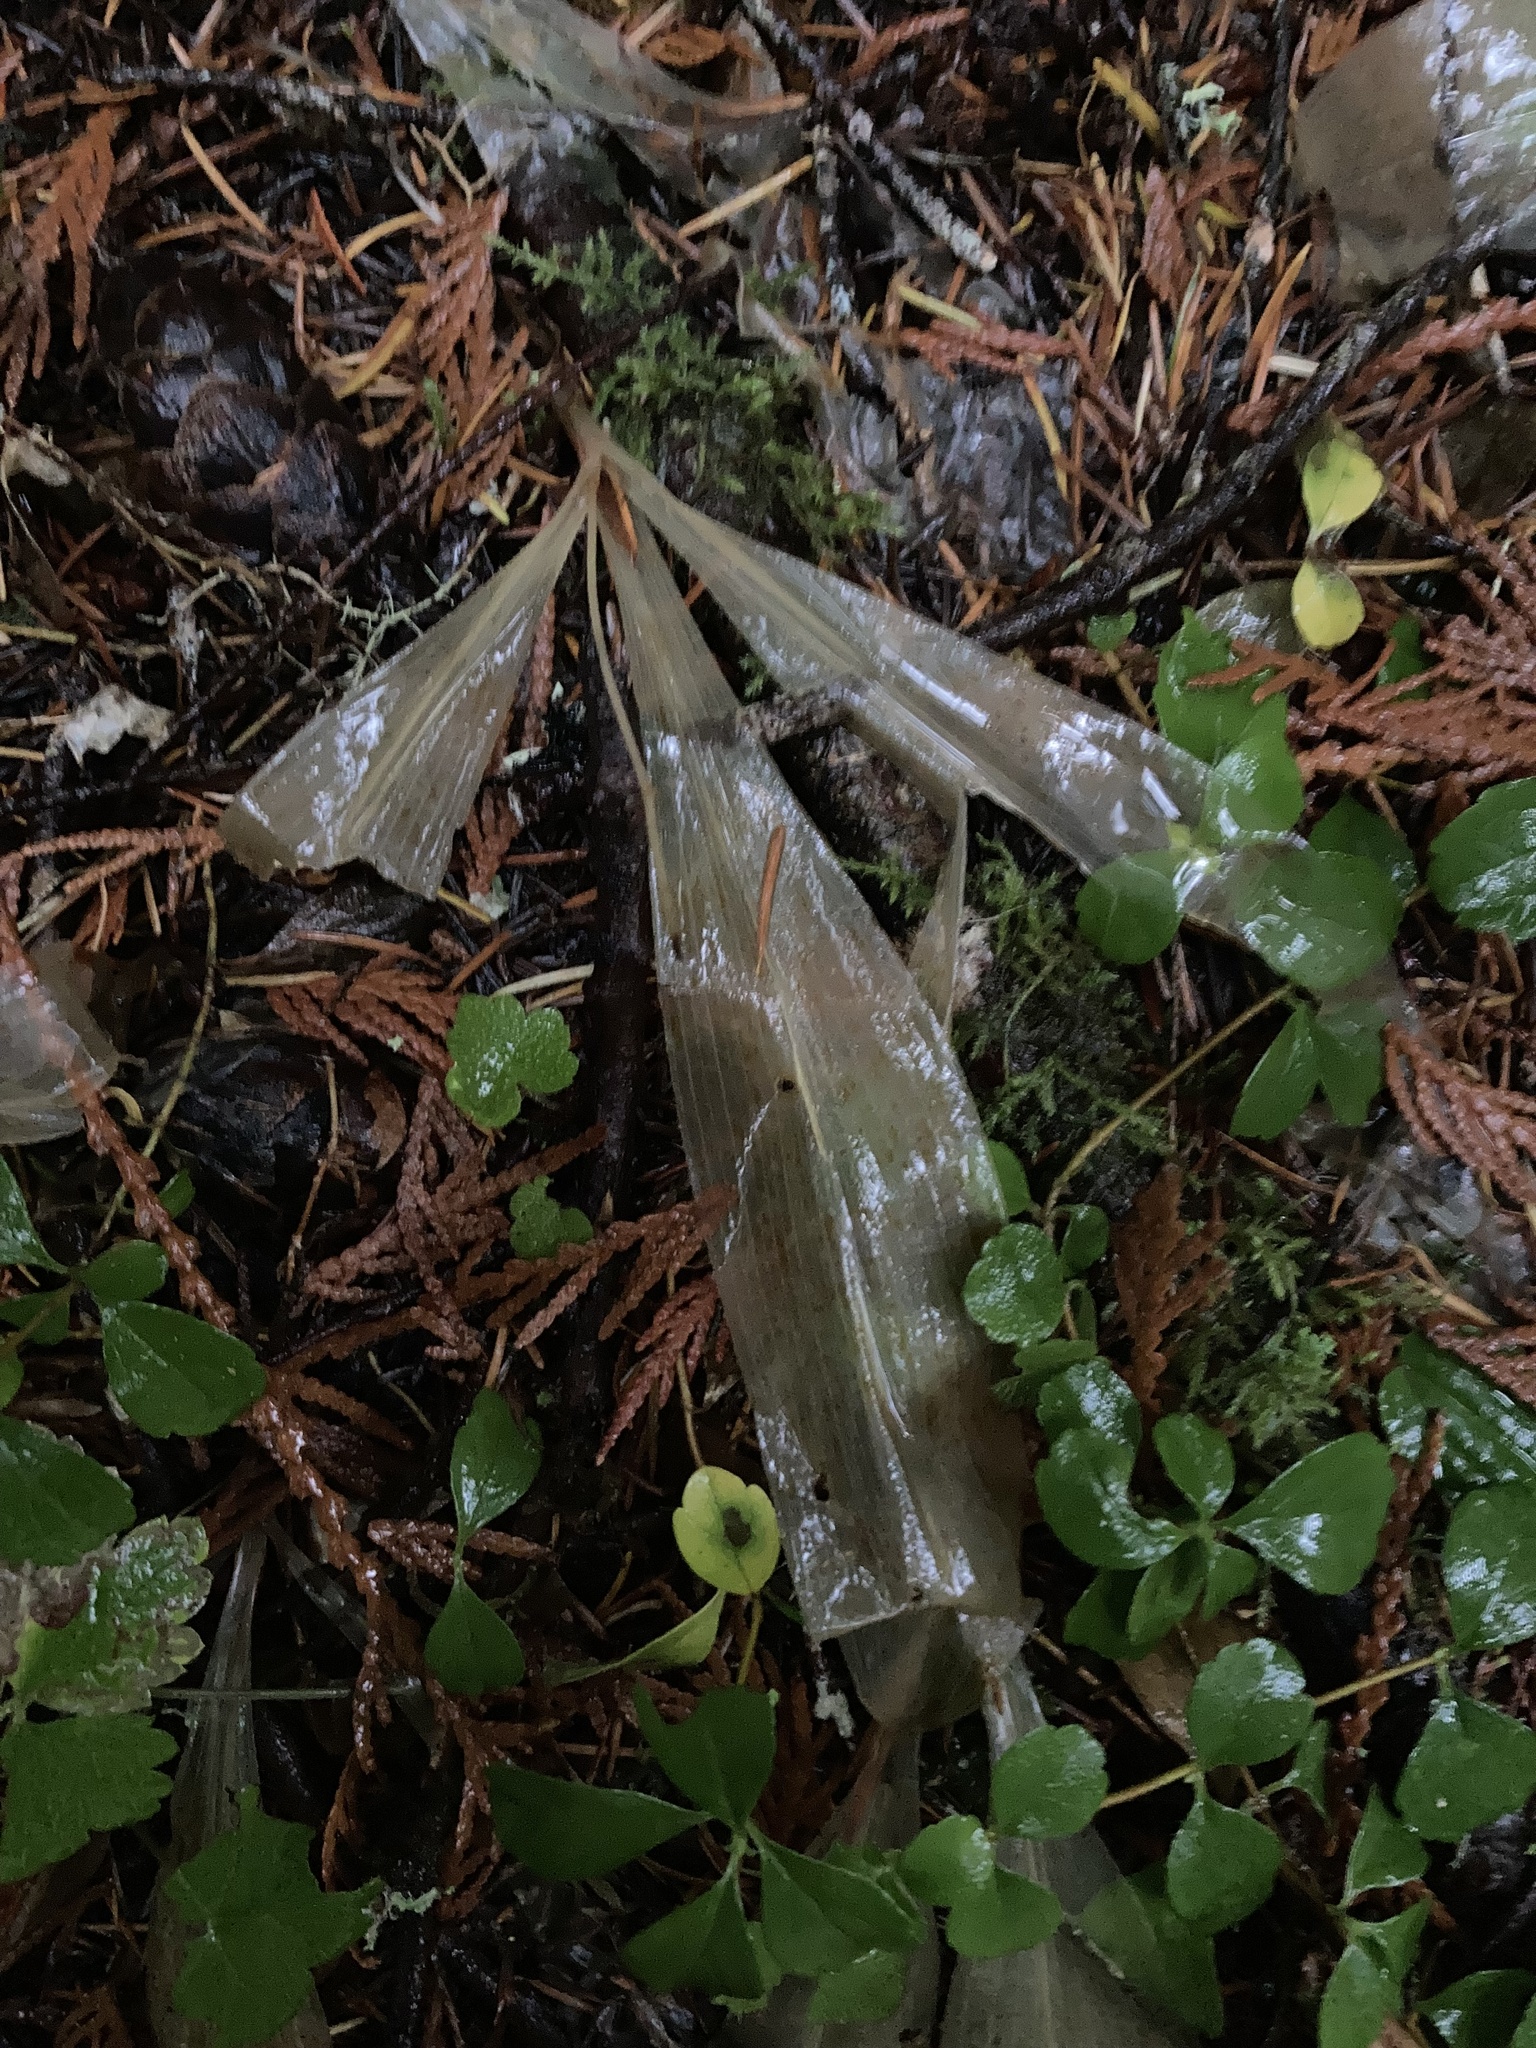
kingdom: Plantae
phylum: Tracheophyta
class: Liliopsida
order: Liliales
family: Liliaceae
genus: Clintonia
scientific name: Clintonia uniflora
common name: Queen's cup
